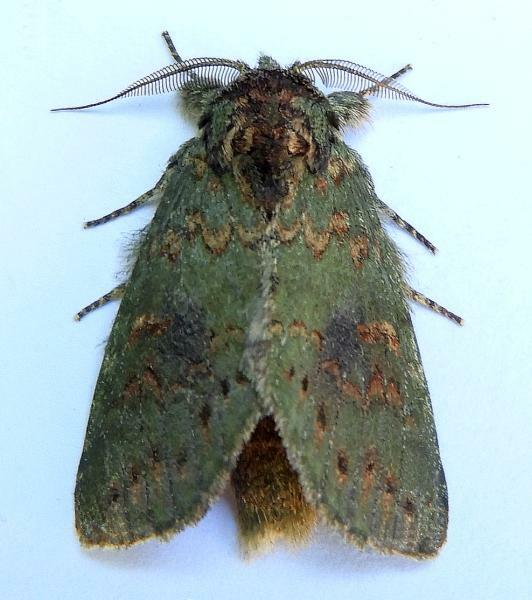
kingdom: Animalia
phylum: Arthropoda
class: Insecta
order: Lepidoptera
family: Notodontidae
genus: Disphragis
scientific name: Disphragis Cecrita biundata
